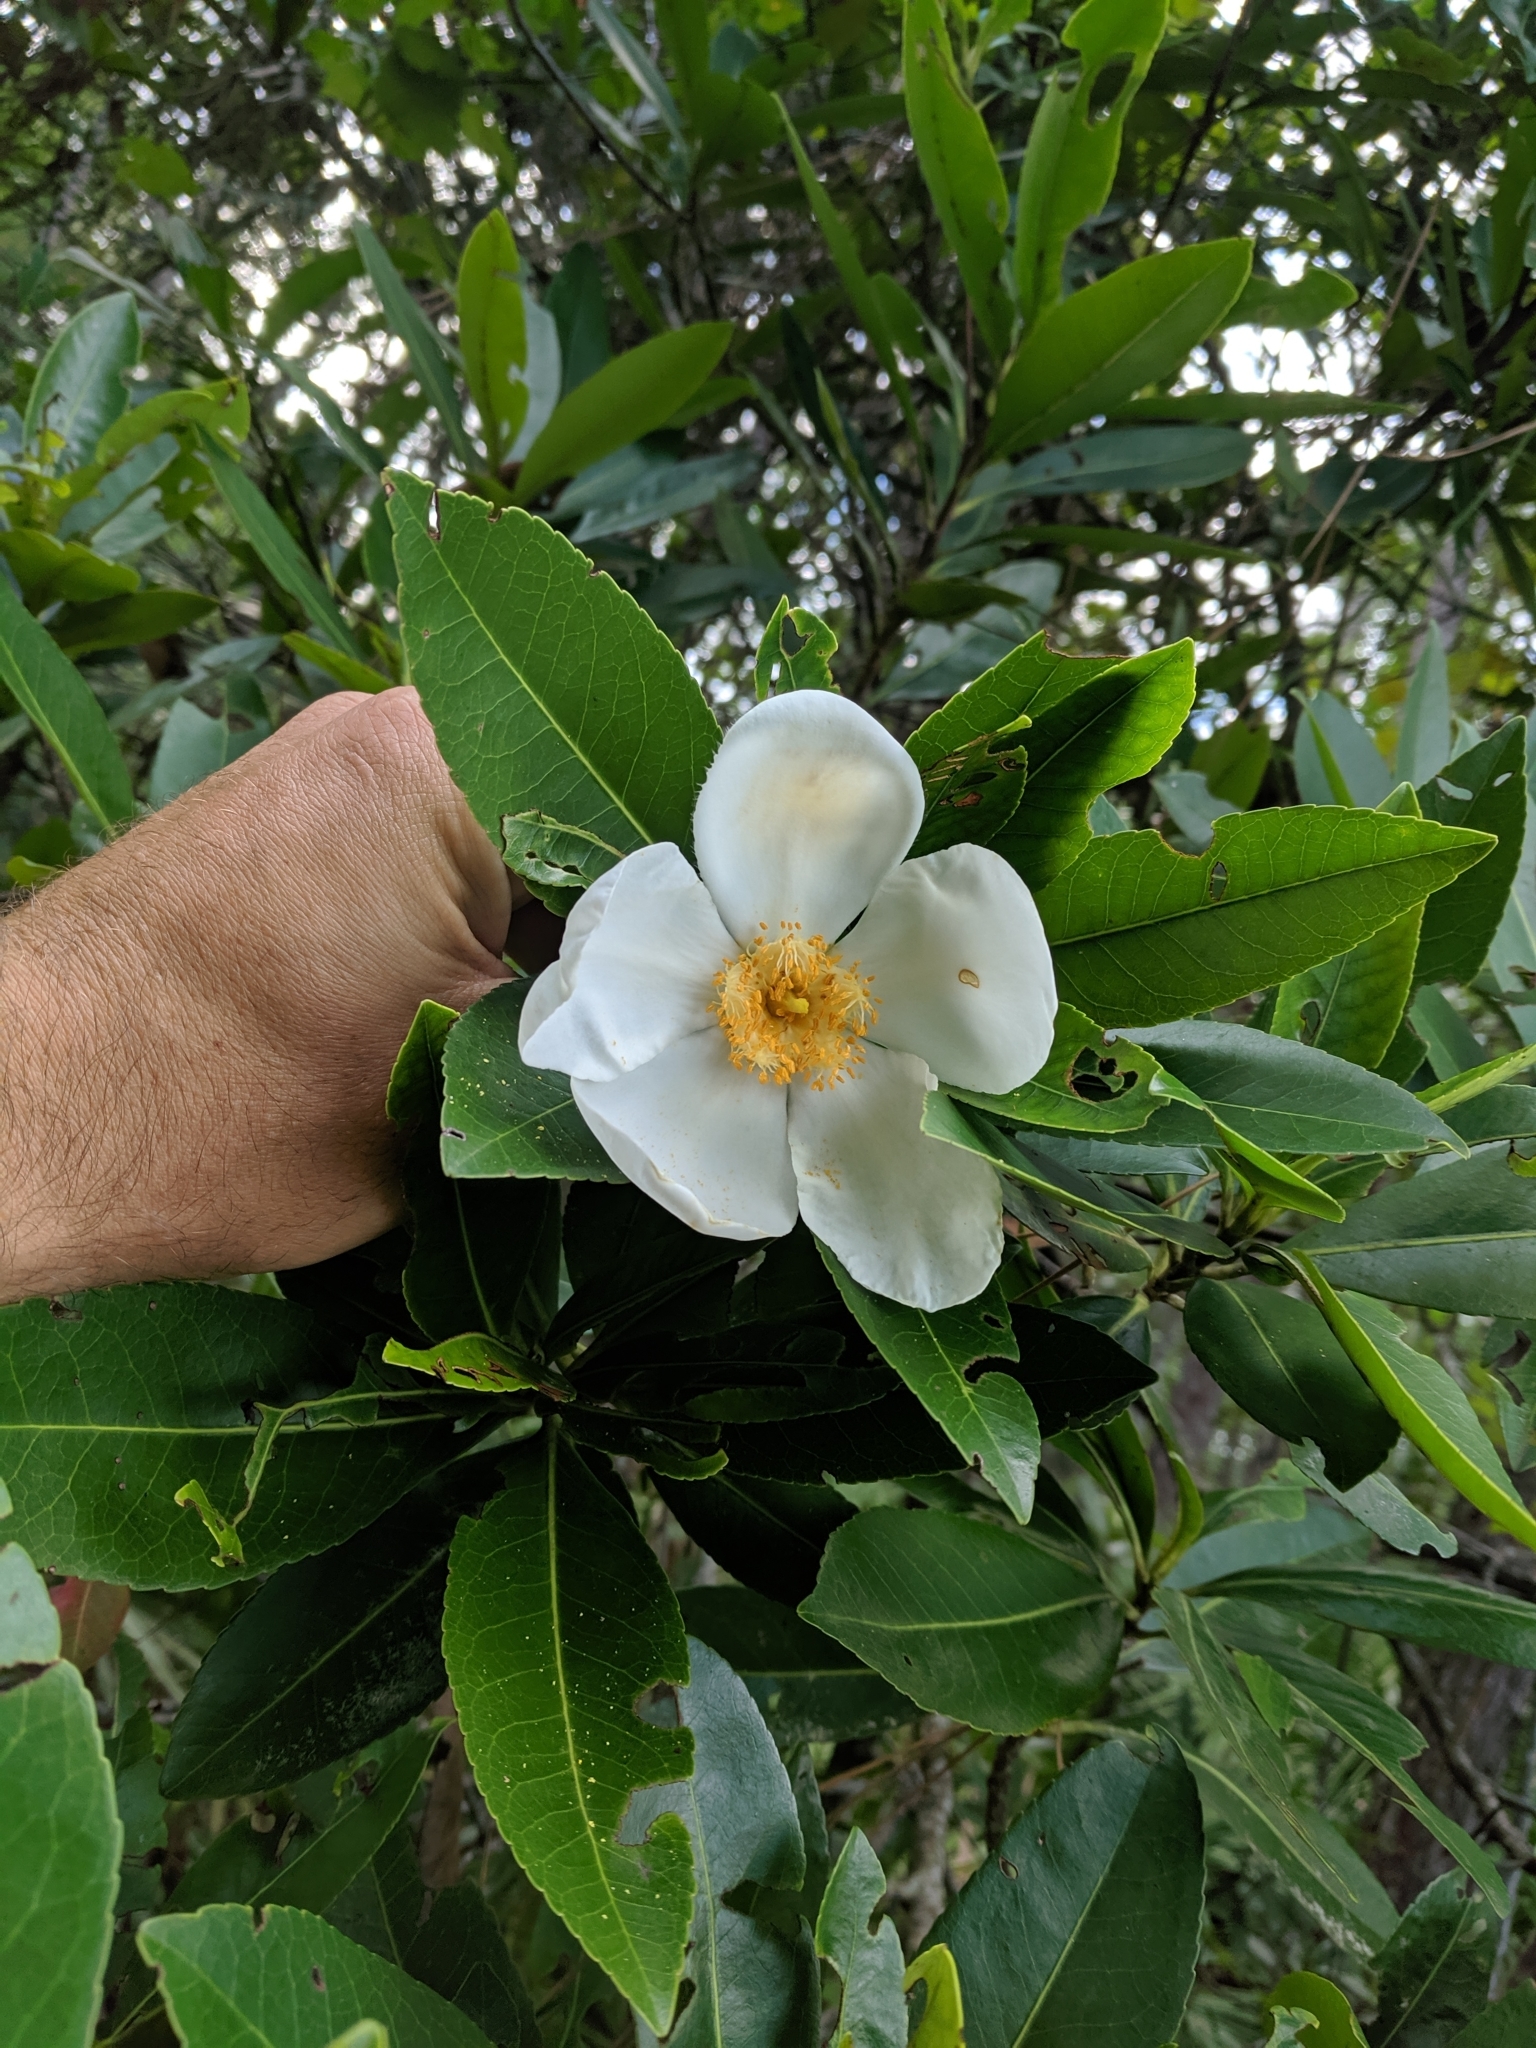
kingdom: Plantae
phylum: Tracheophyta
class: Magnoliopsida
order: Ericales
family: Theaceae
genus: Gordonia
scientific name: Gordonia lasianthus
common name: Loblolly bay
